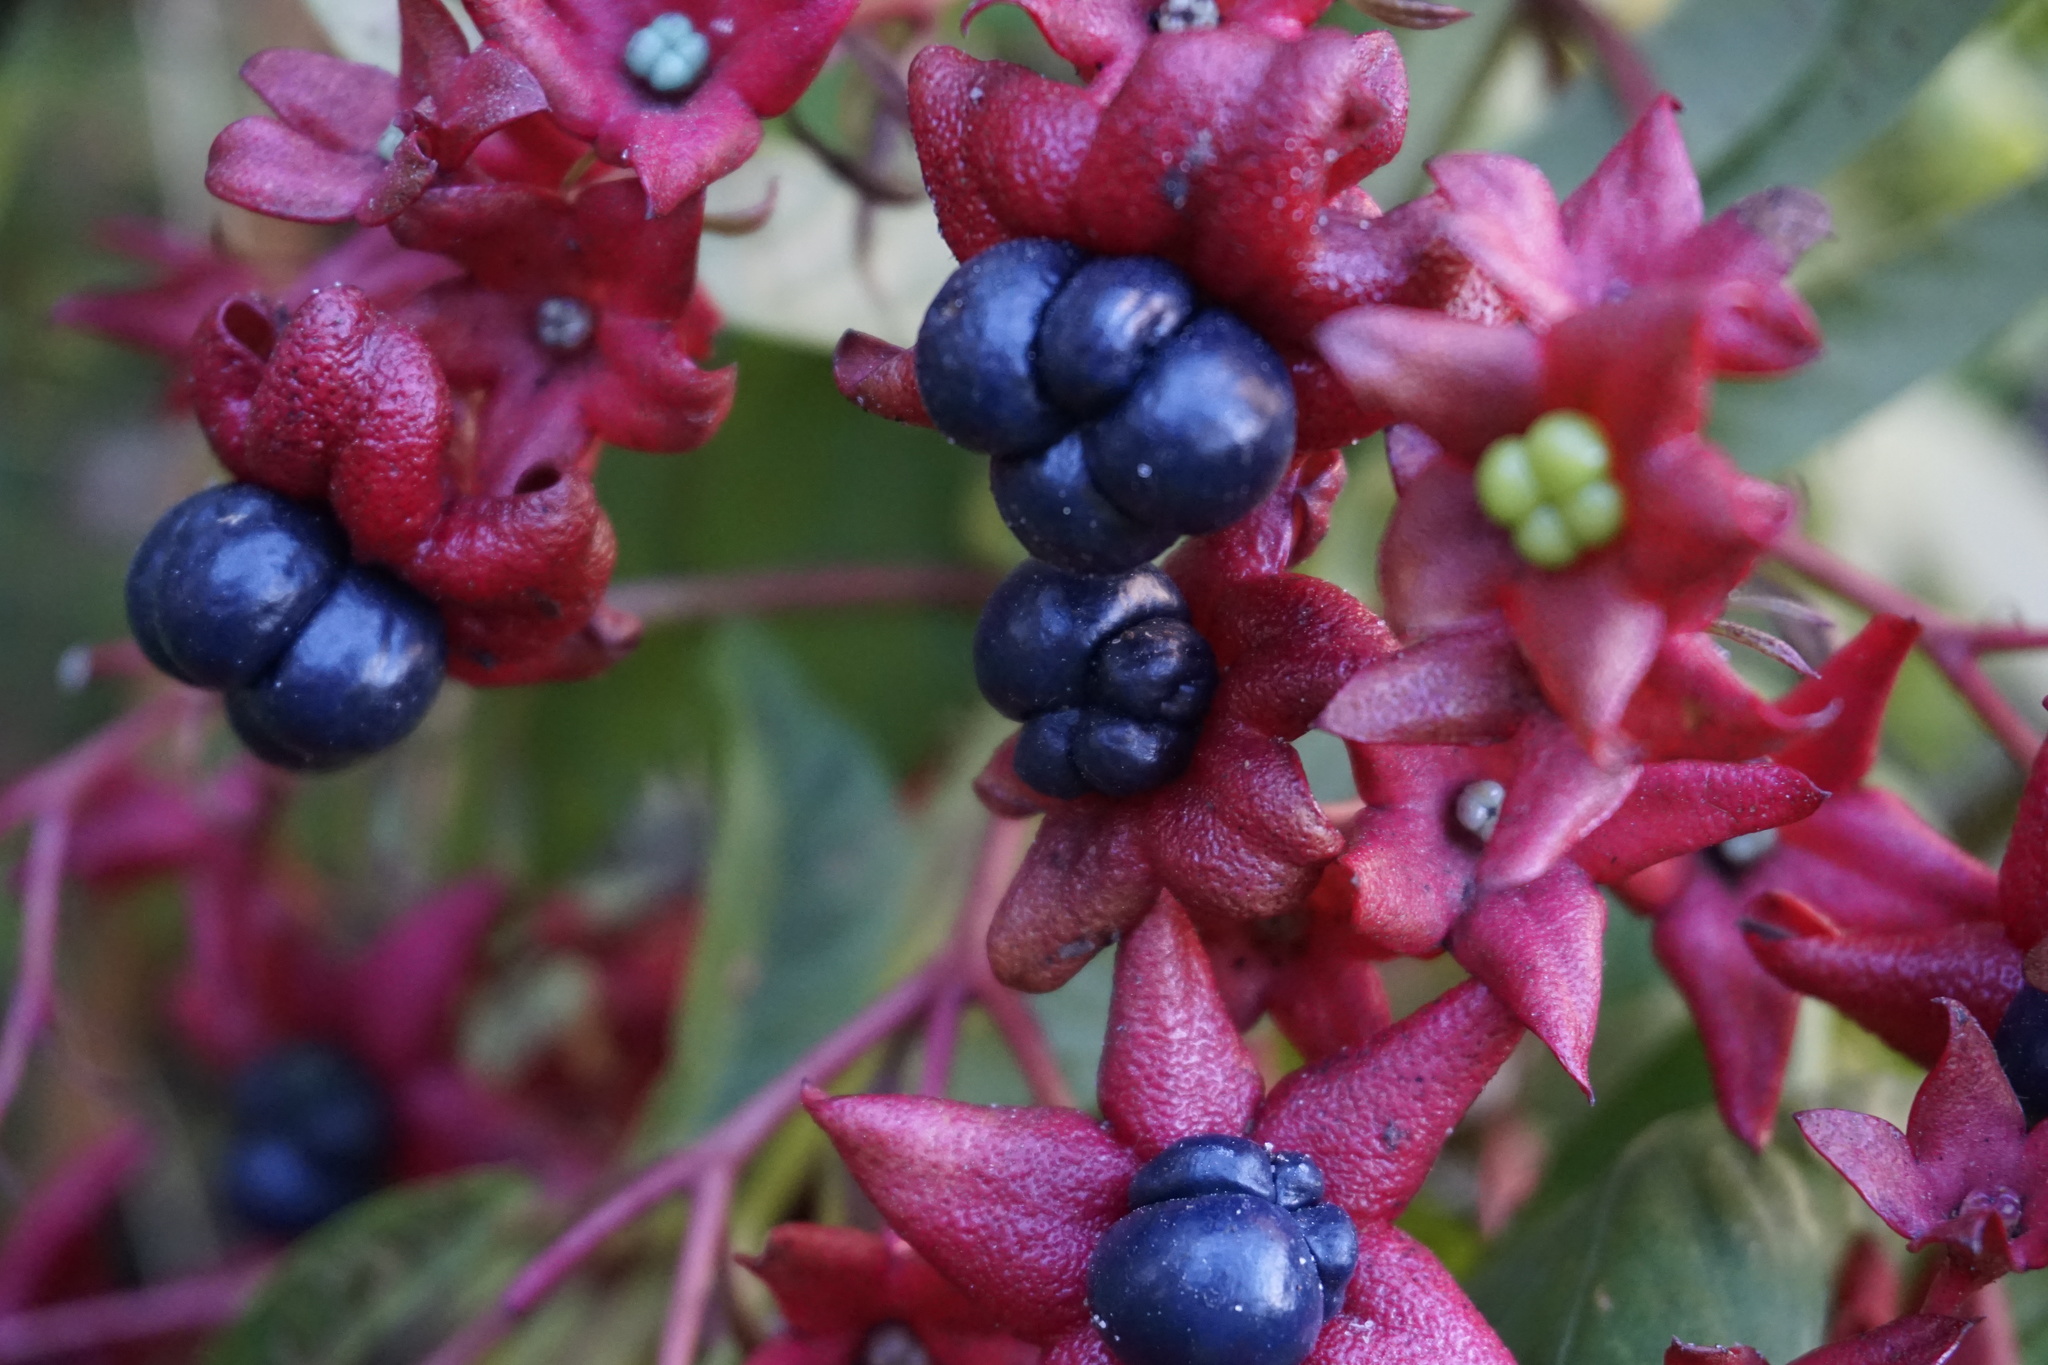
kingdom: Plantae
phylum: Tracheophyta
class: Magnoliopsida
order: Lamiales
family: Lamiaceae
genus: Clerodendrum
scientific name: Clerodendrum indicum
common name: Turk's turbin
